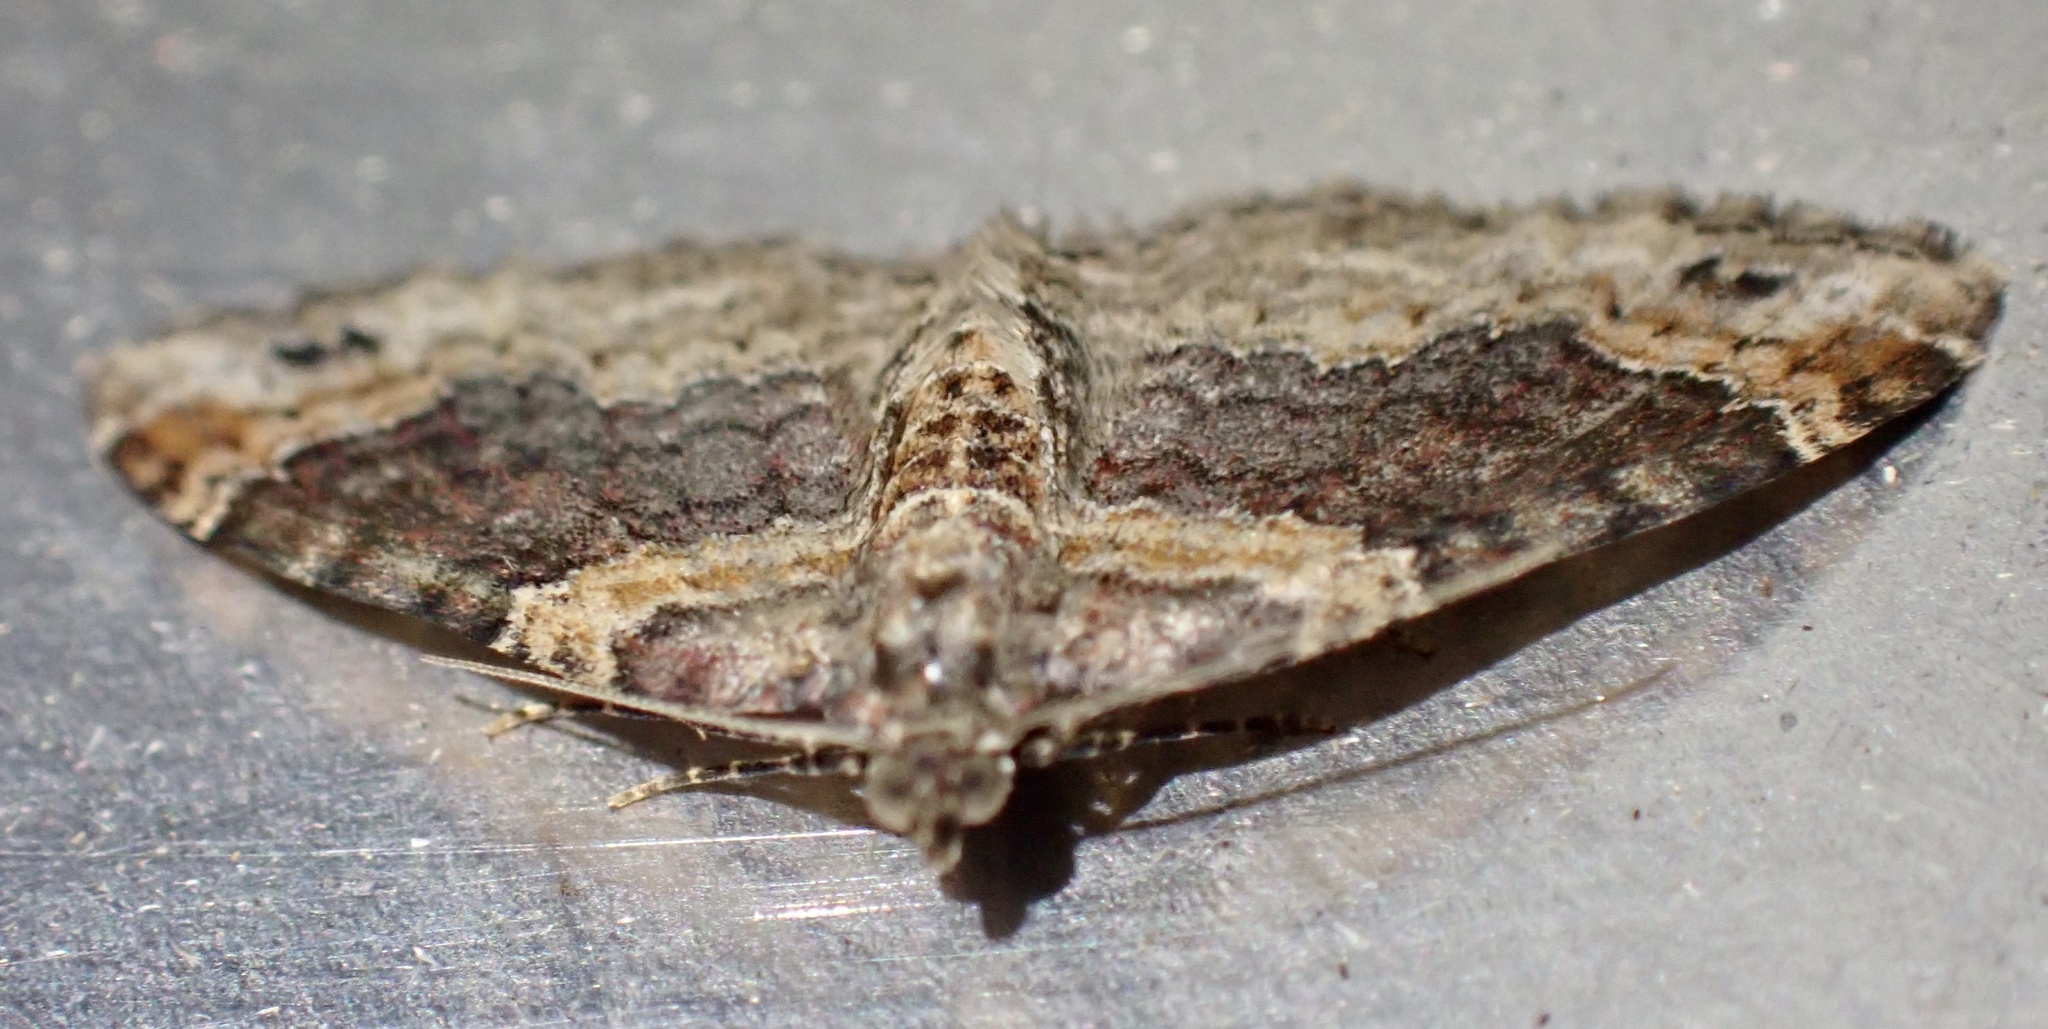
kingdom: Animalia
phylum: Arthropoda
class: Insecta
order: Lepidoptera
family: Geometridae
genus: Xanthorhoe
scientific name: Xanthorhoe ferrugata
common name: Dark-barred twin-spot carpet
